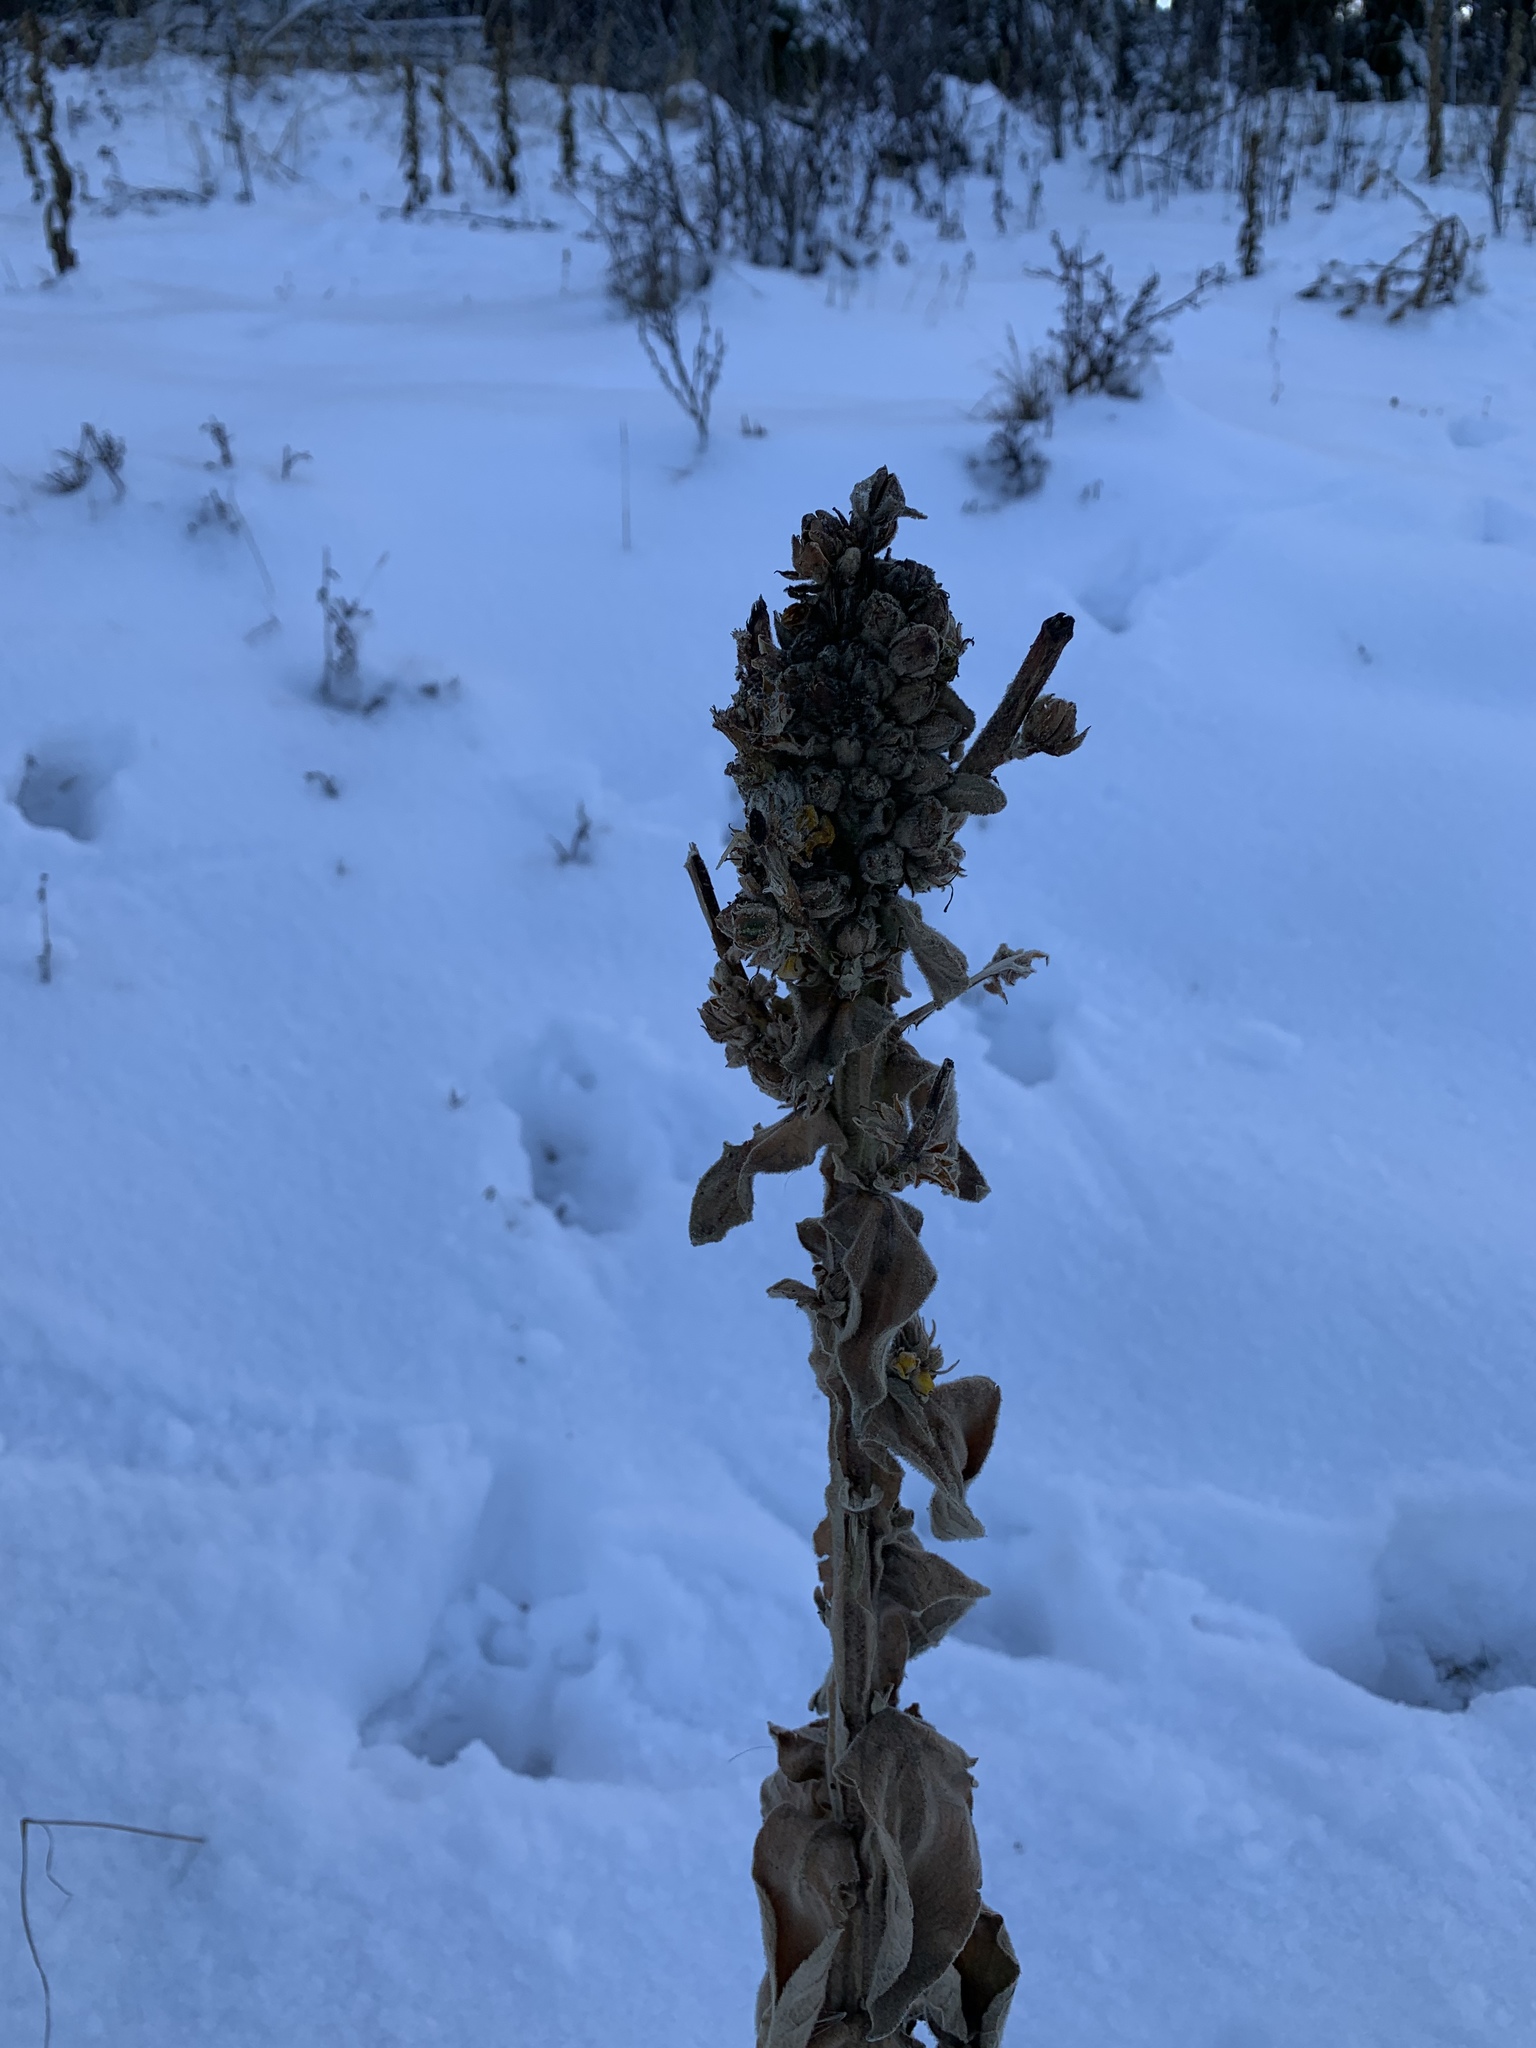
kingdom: Plantae
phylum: Tracheophyta
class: Magnoliopsida
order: Lamiales
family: Scrophulariaceae
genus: Verbascum
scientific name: Verbascum thapsus
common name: Common mullein
